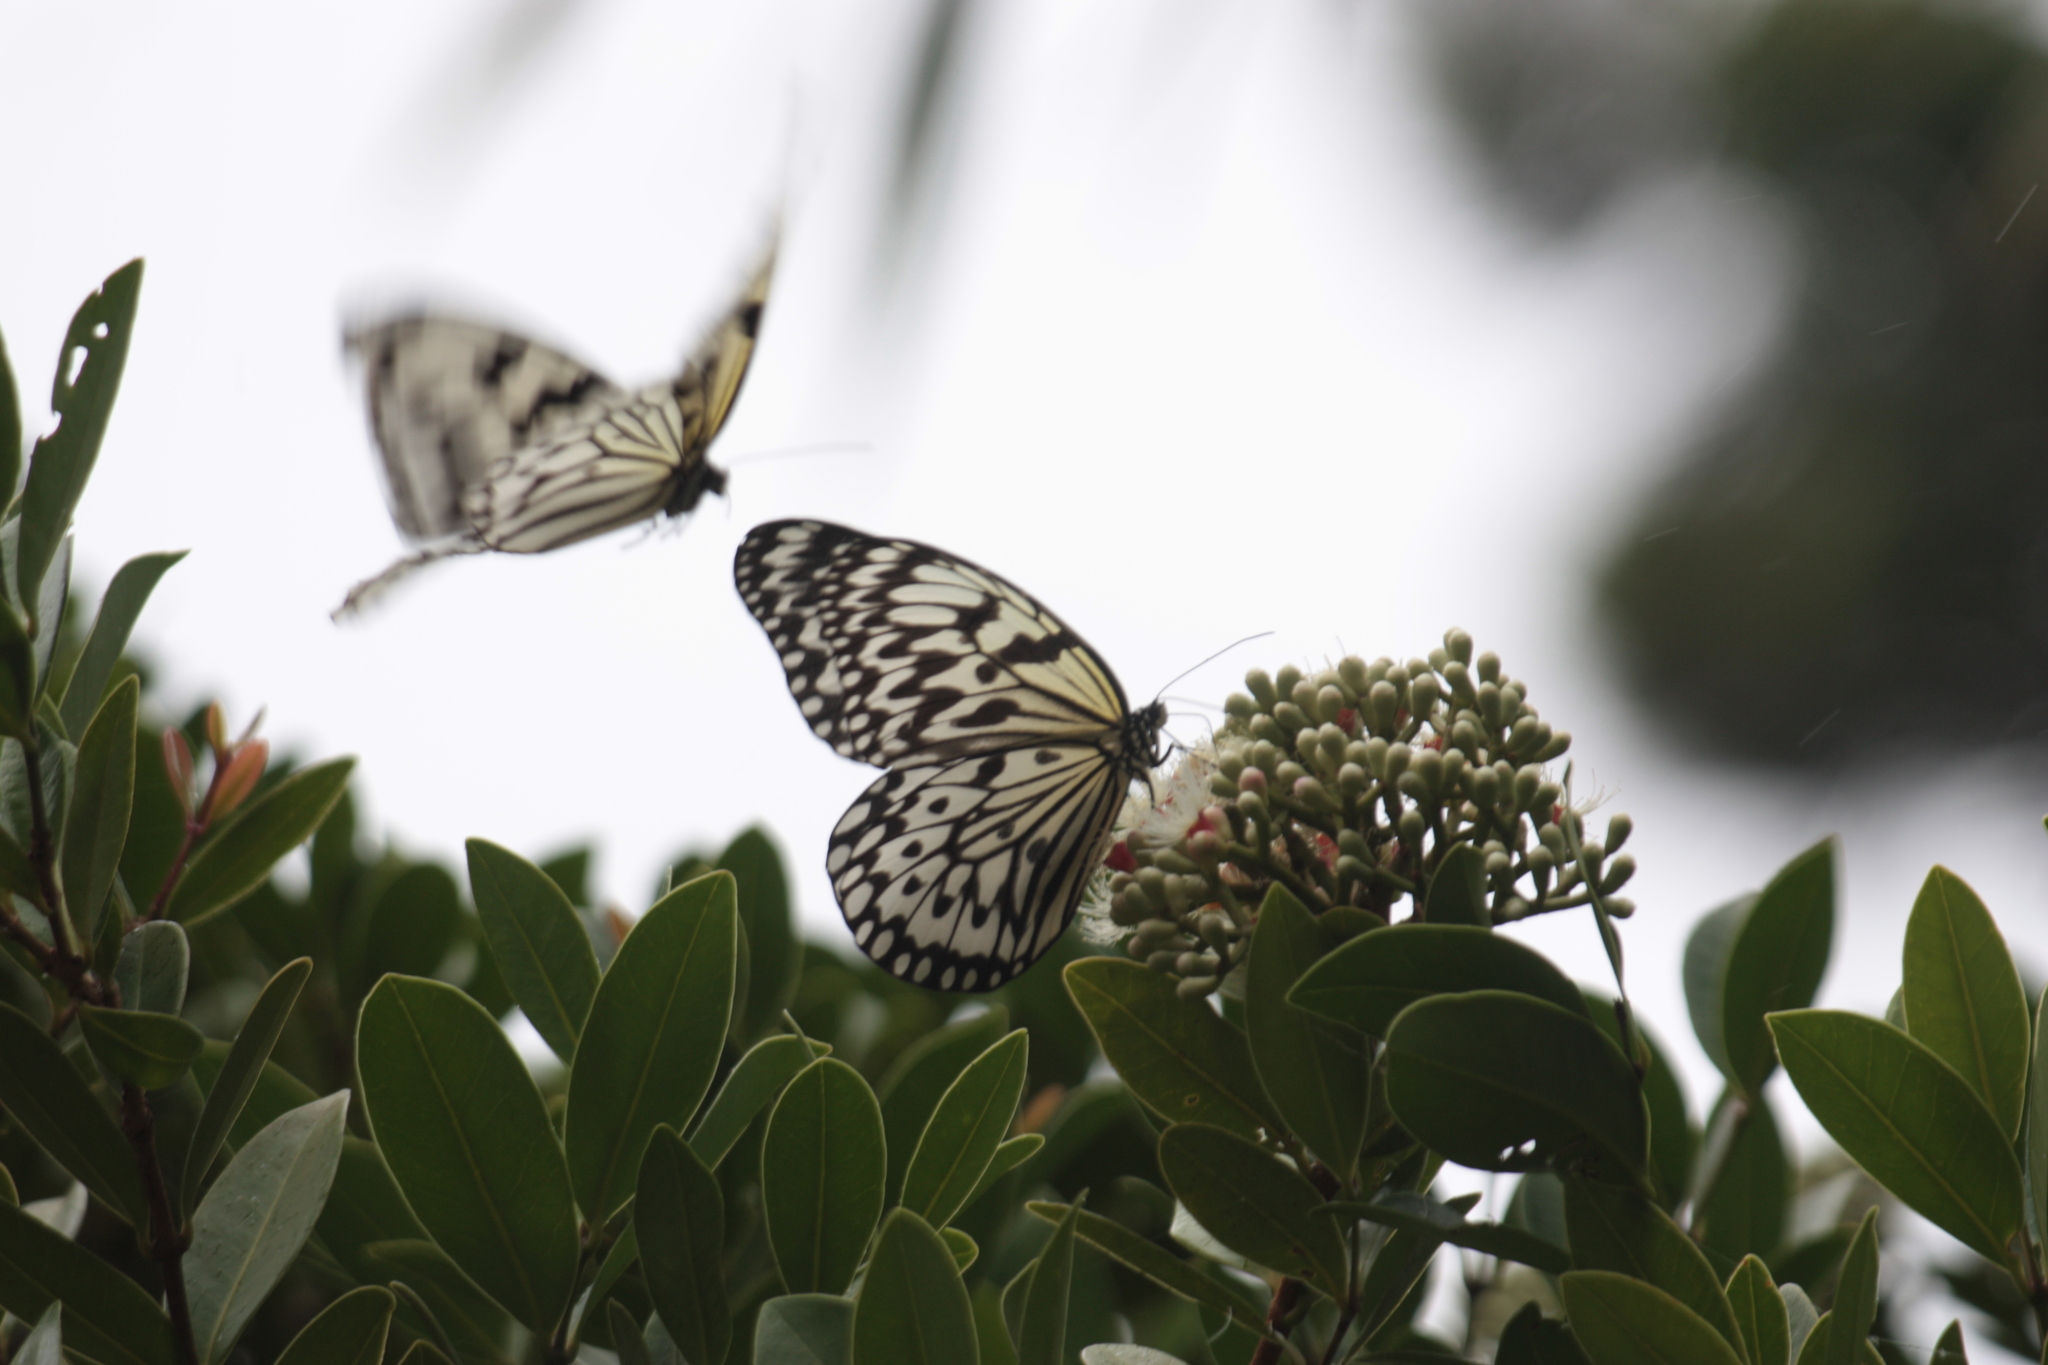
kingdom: Animalia
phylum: Arthropoda
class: Insecta
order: Lepidoptera
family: Nymphalidae
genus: Idea
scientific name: Idea leuconoe
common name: Rice paper butterfly
